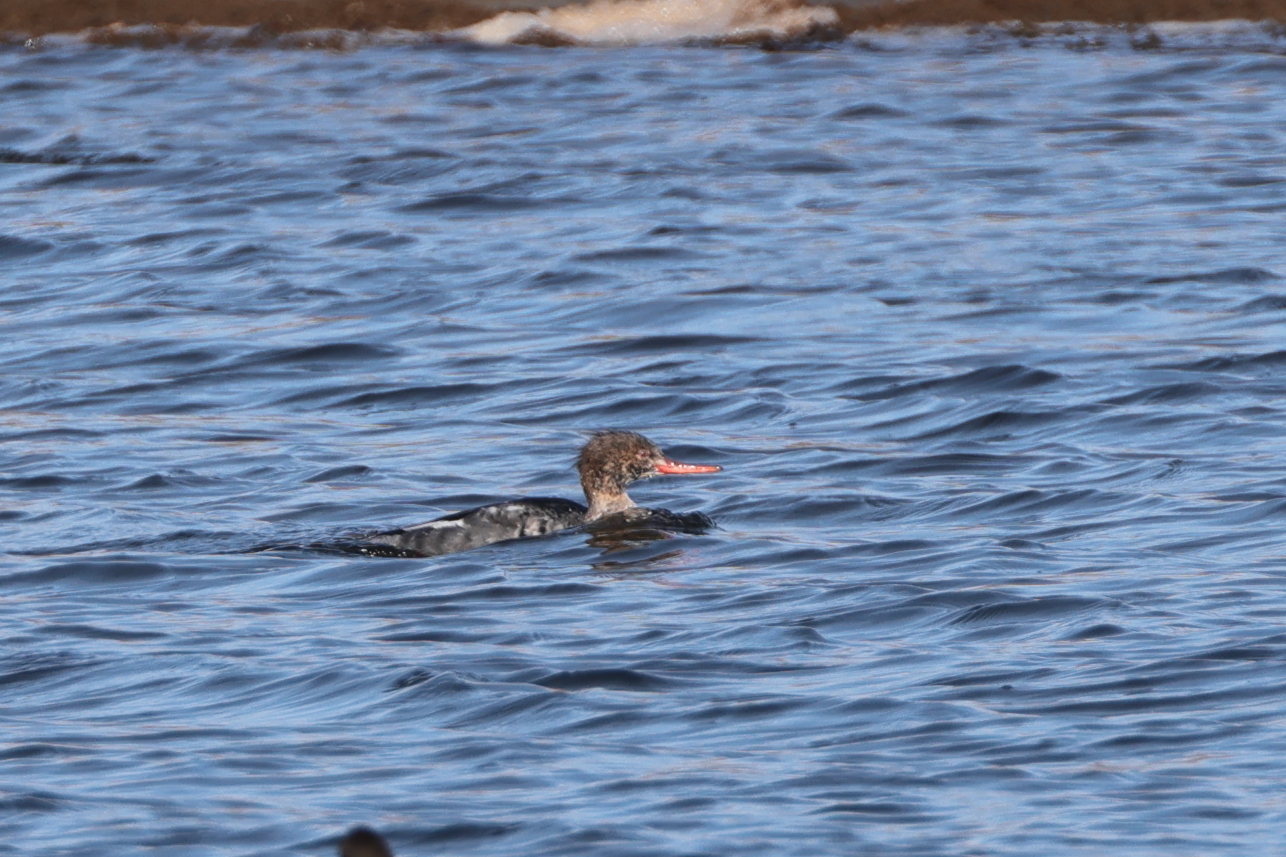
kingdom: Animalia
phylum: Chordata
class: Aves
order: Anseriformes
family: Anatidae
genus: Mergus
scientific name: Mergus serrator
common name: Red-breasted merganser
